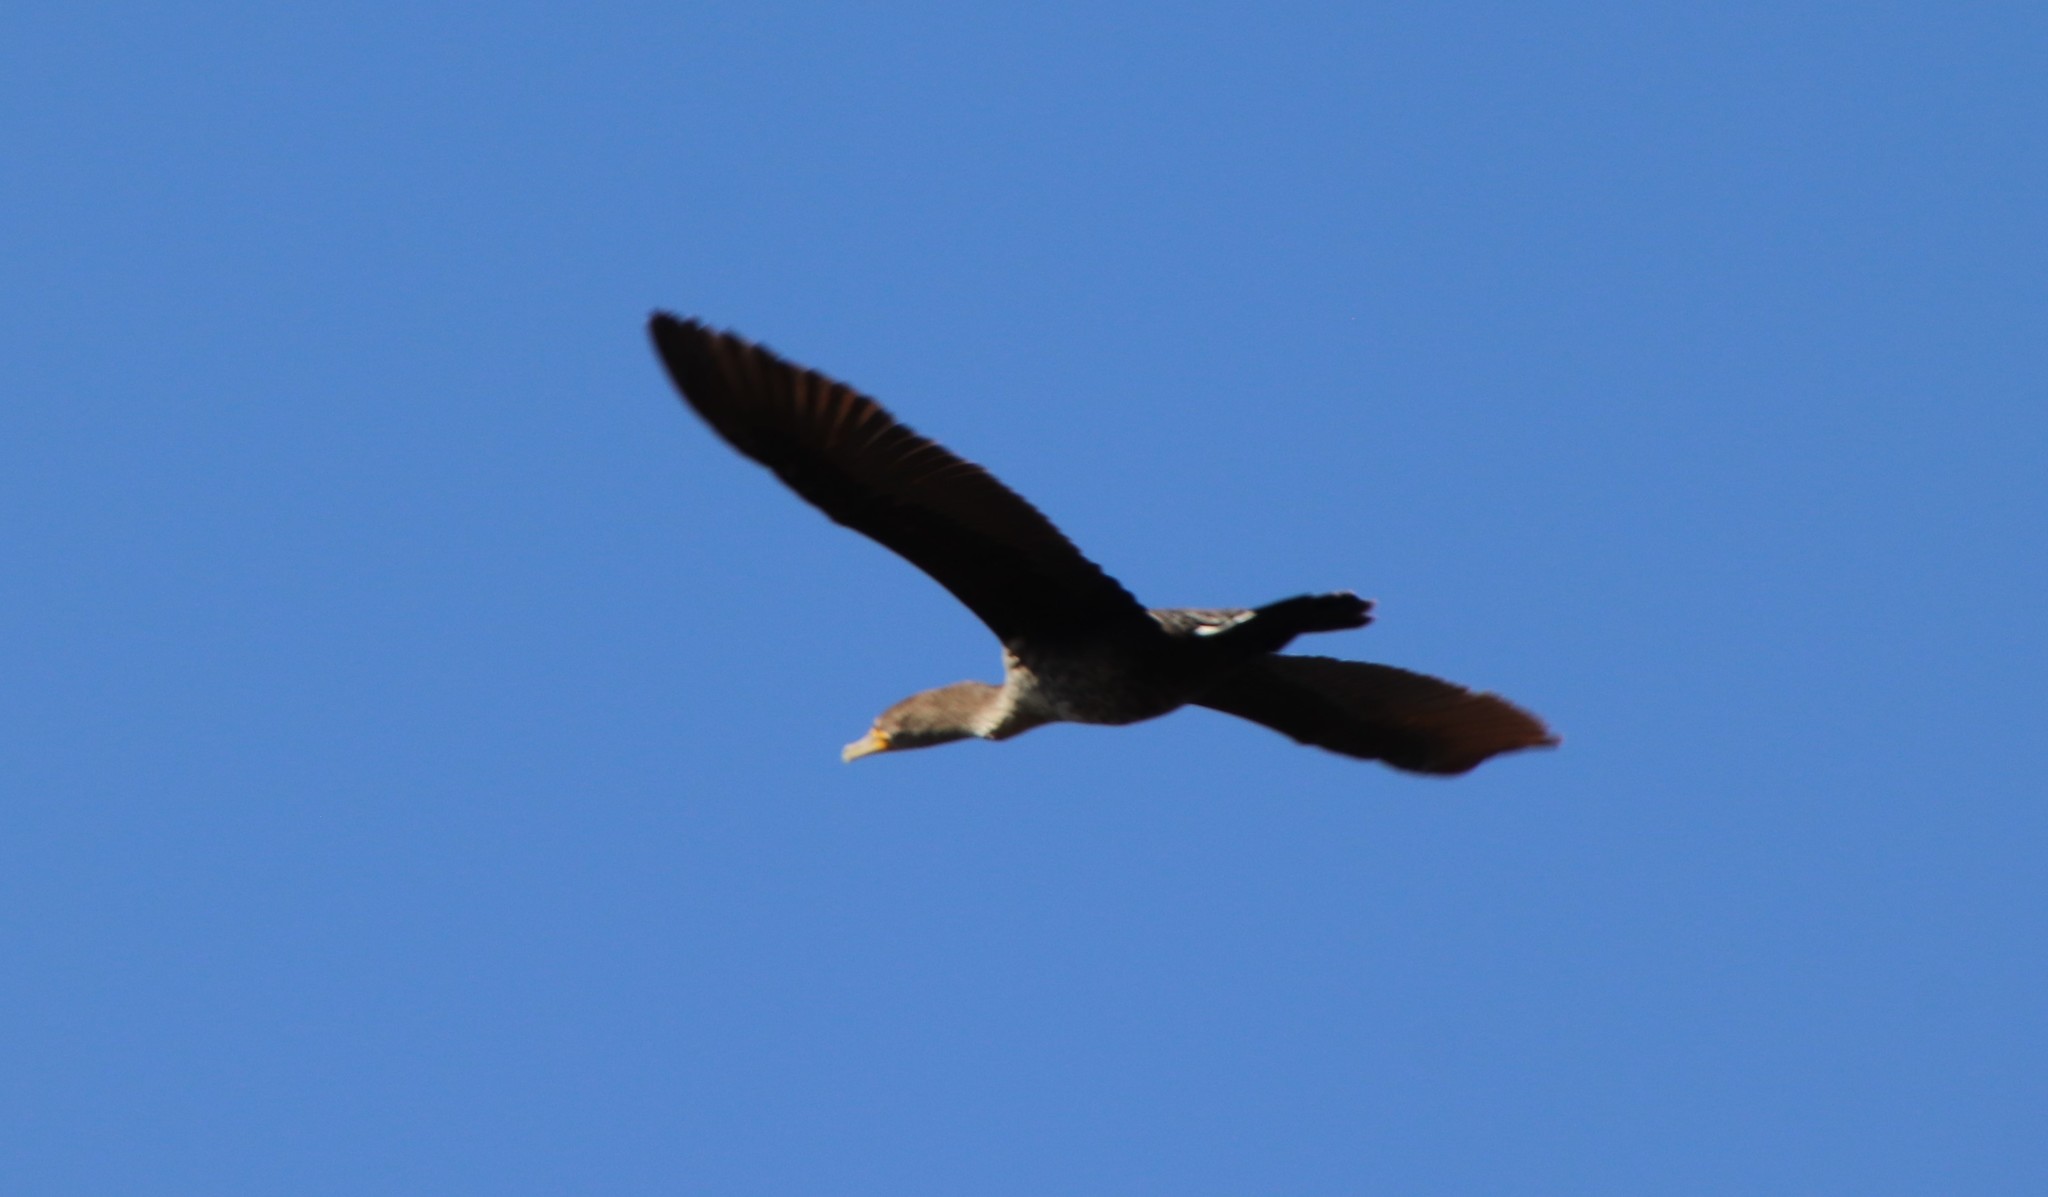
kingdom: Animalia
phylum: Chordata
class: Aves
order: Suliformes
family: Phalacrocoracidae
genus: Phalacrocorax
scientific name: Phalacrocorax auritus
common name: Double-crested cormorant
